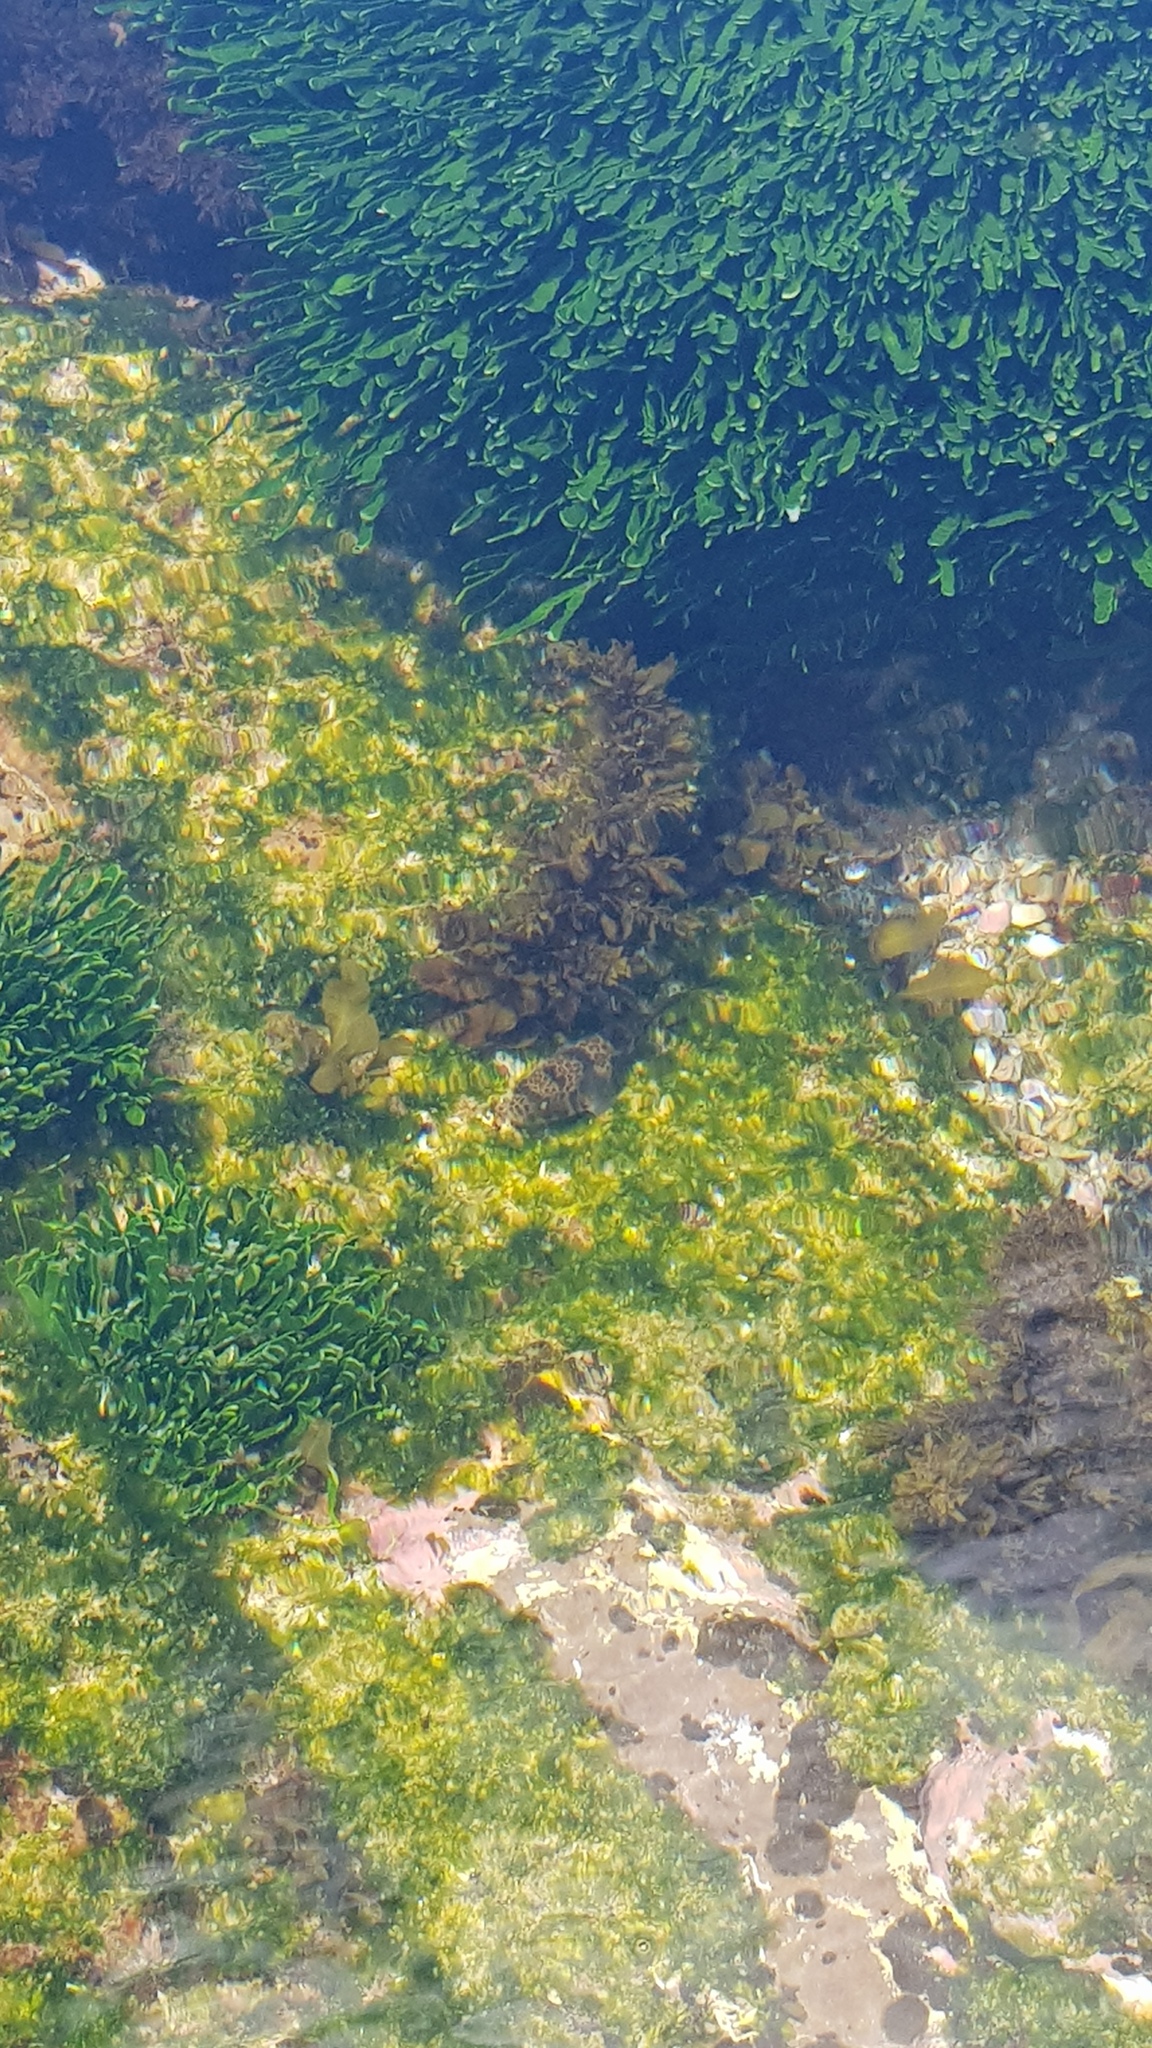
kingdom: Animalia
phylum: Chordata
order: Tetraodontiformes
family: Tetraodontidae
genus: Tetractenos
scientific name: Tetractenos glaber
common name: Smooth toadfish
